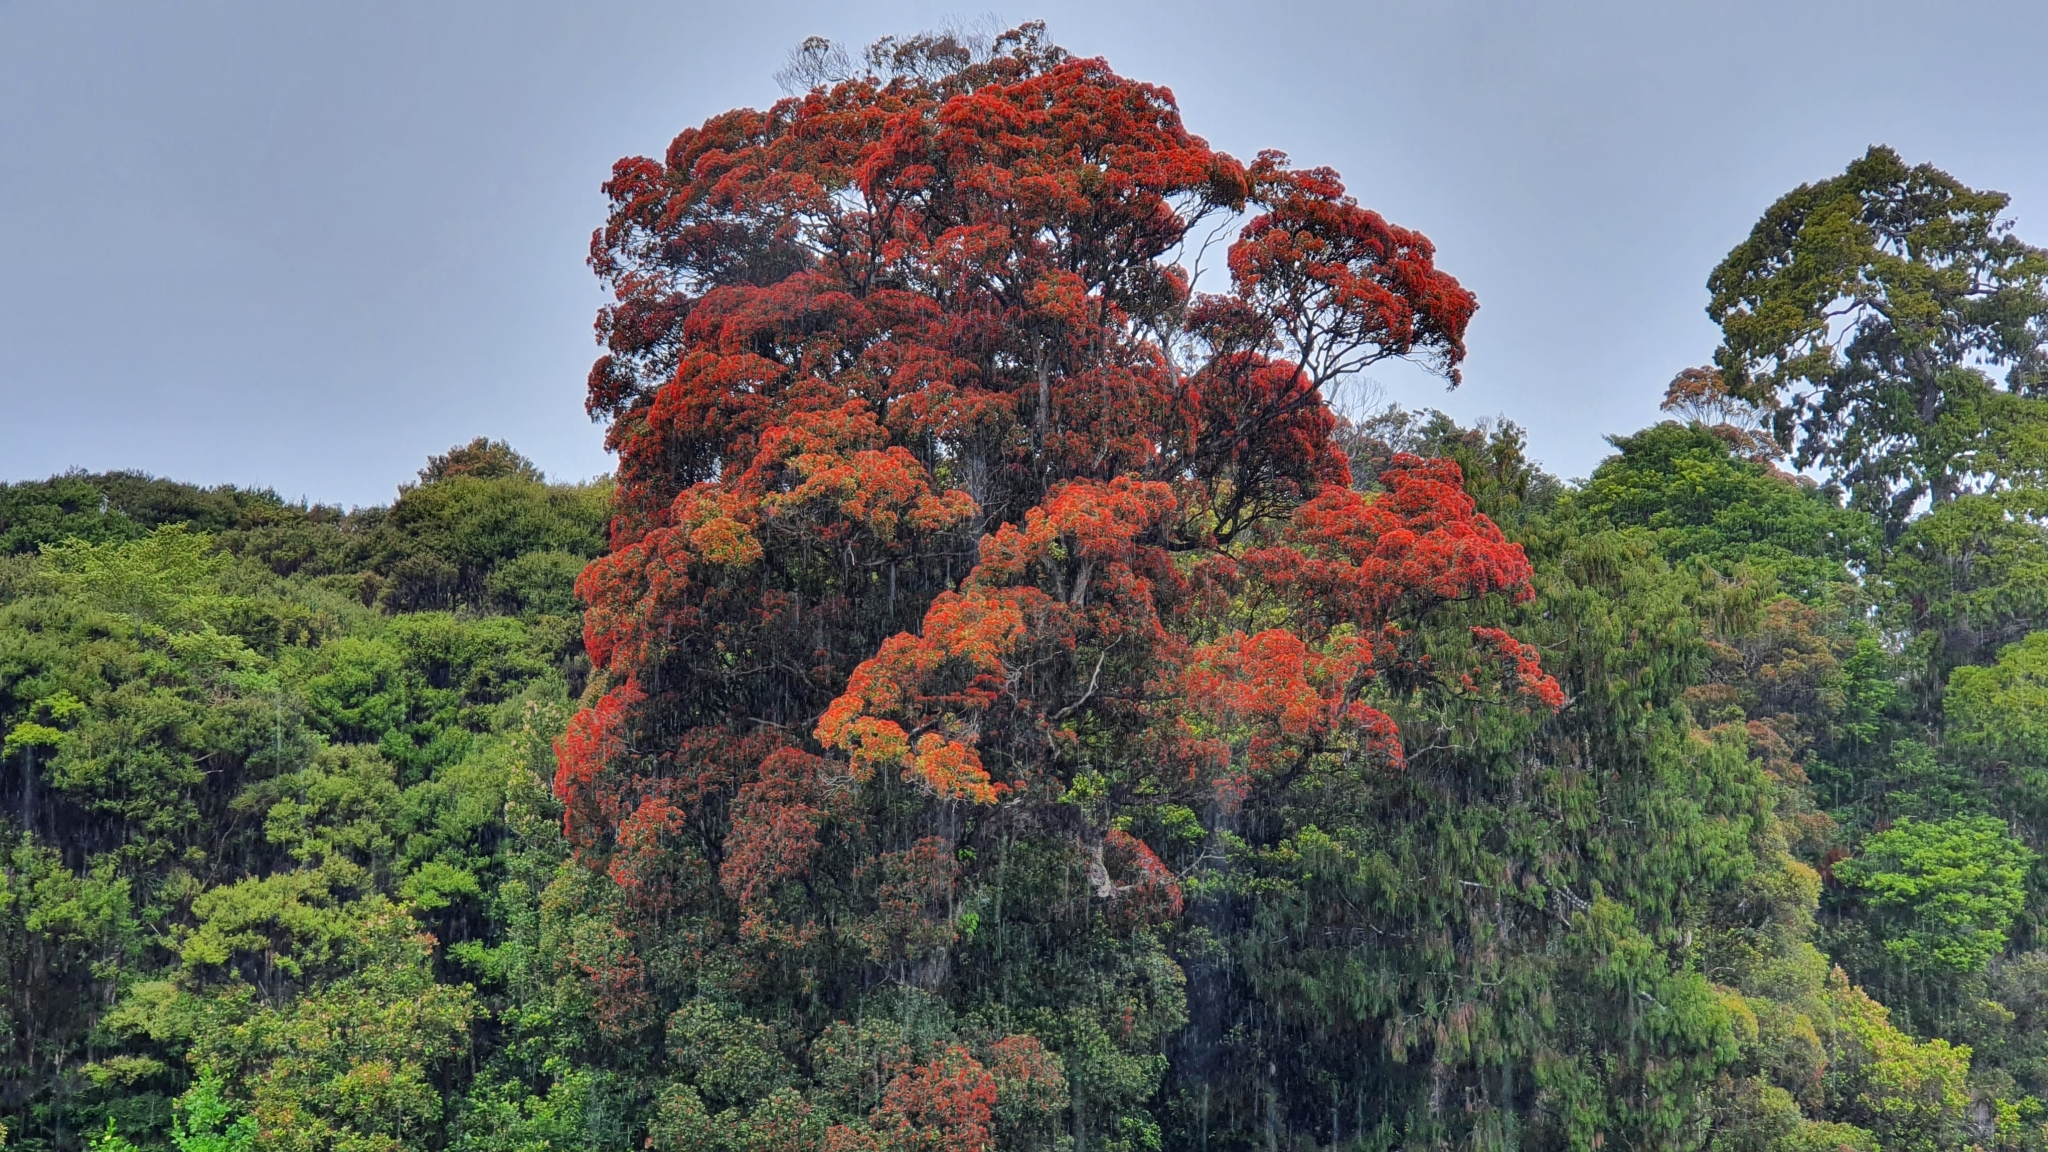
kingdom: Plantae
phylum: Tracheophyta
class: Magnoliopsida
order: Myrtales
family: Myrtaceae
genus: Metrosideros
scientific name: Metrosideros umbellata
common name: Southern rata
